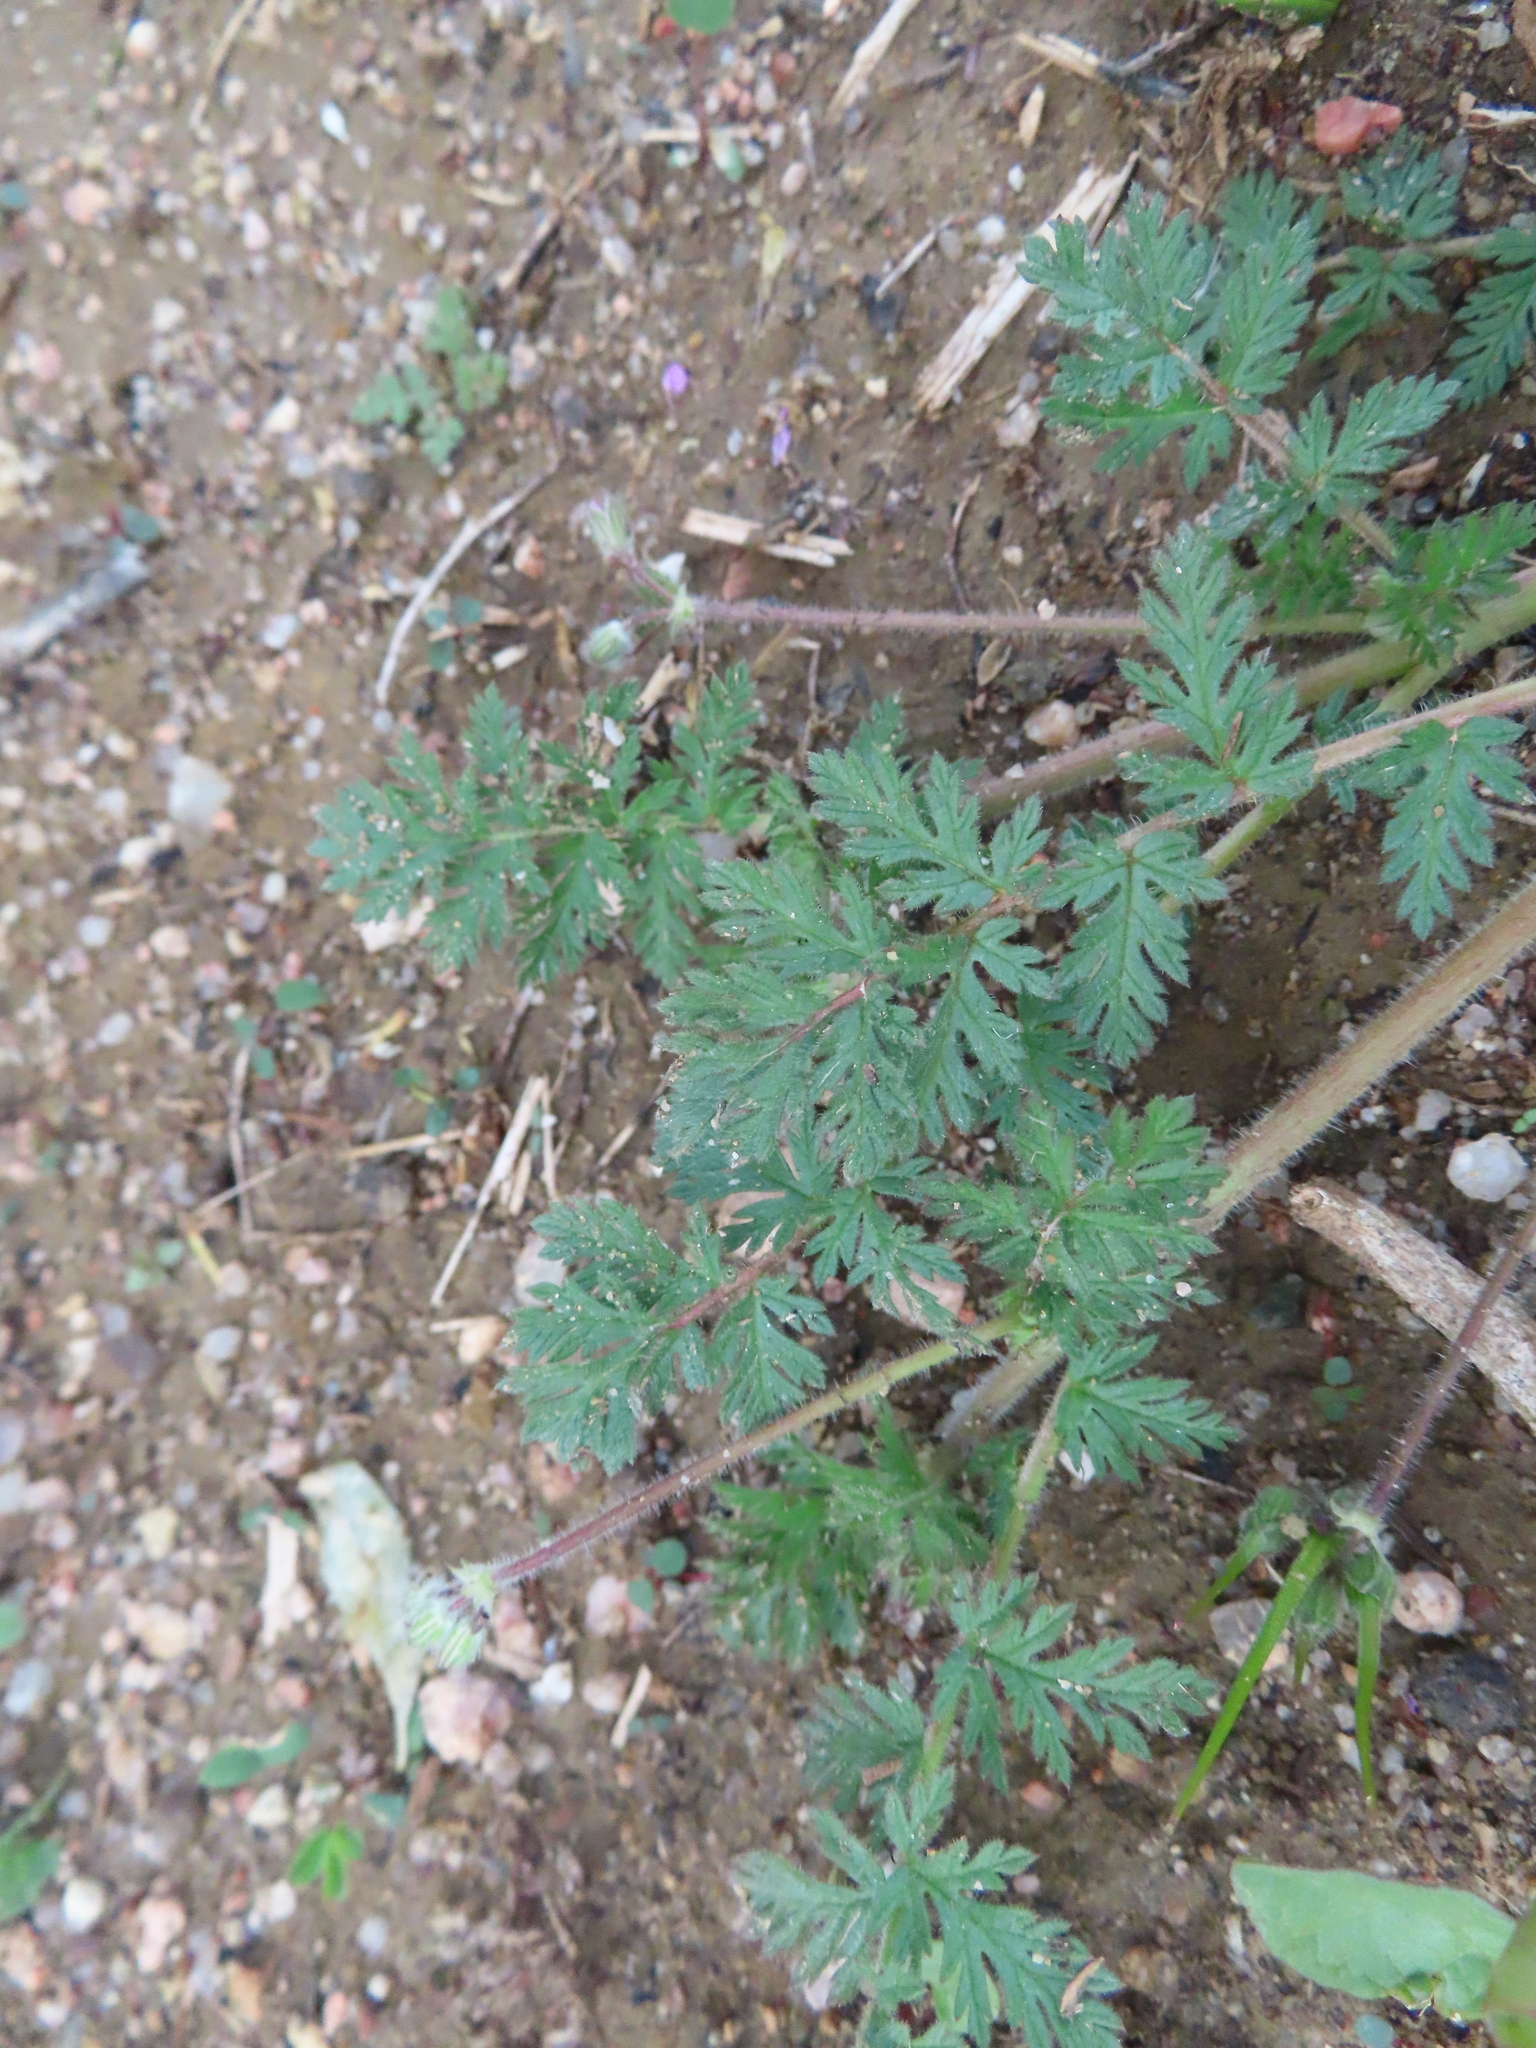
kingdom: Plantae
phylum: Tracheophyta
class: Magnoliopsida
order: Geraniales
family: Geraniaceae
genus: Erodium
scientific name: Erodium cicutarium
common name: Common stork's-bill
